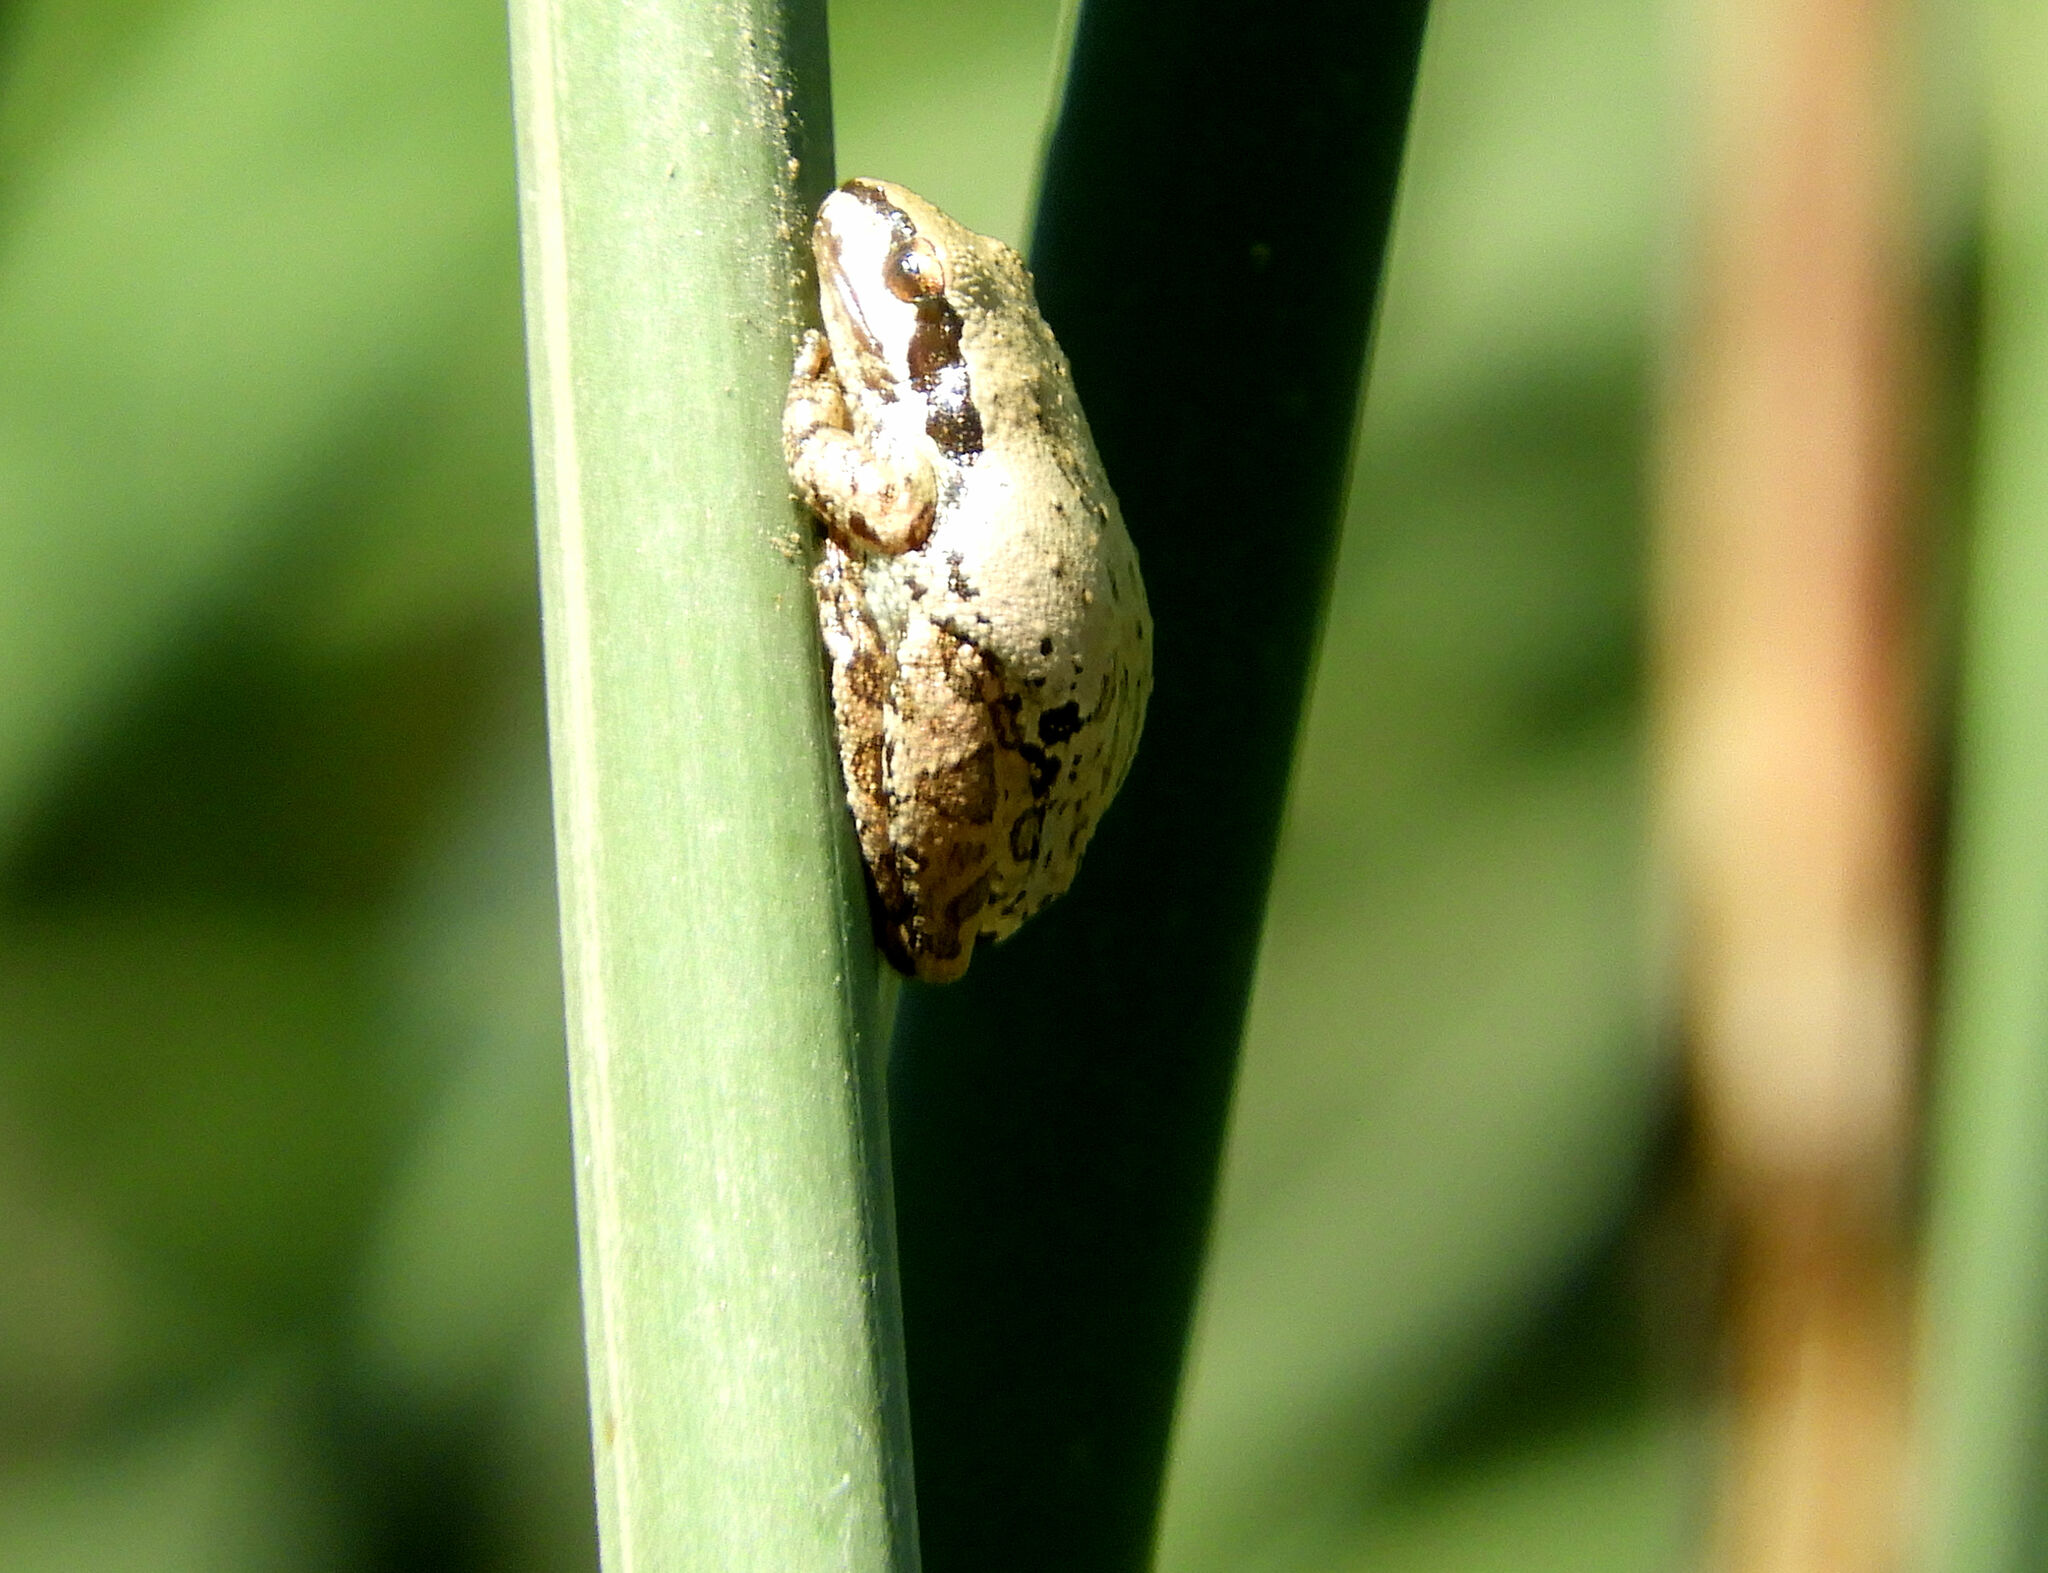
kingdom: Animalia
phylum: Chordata
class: Amphibia
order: Anura
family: Hylidae
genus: Pseudacris
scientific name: Pseudacris regilla
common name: Pacific chorus frog
